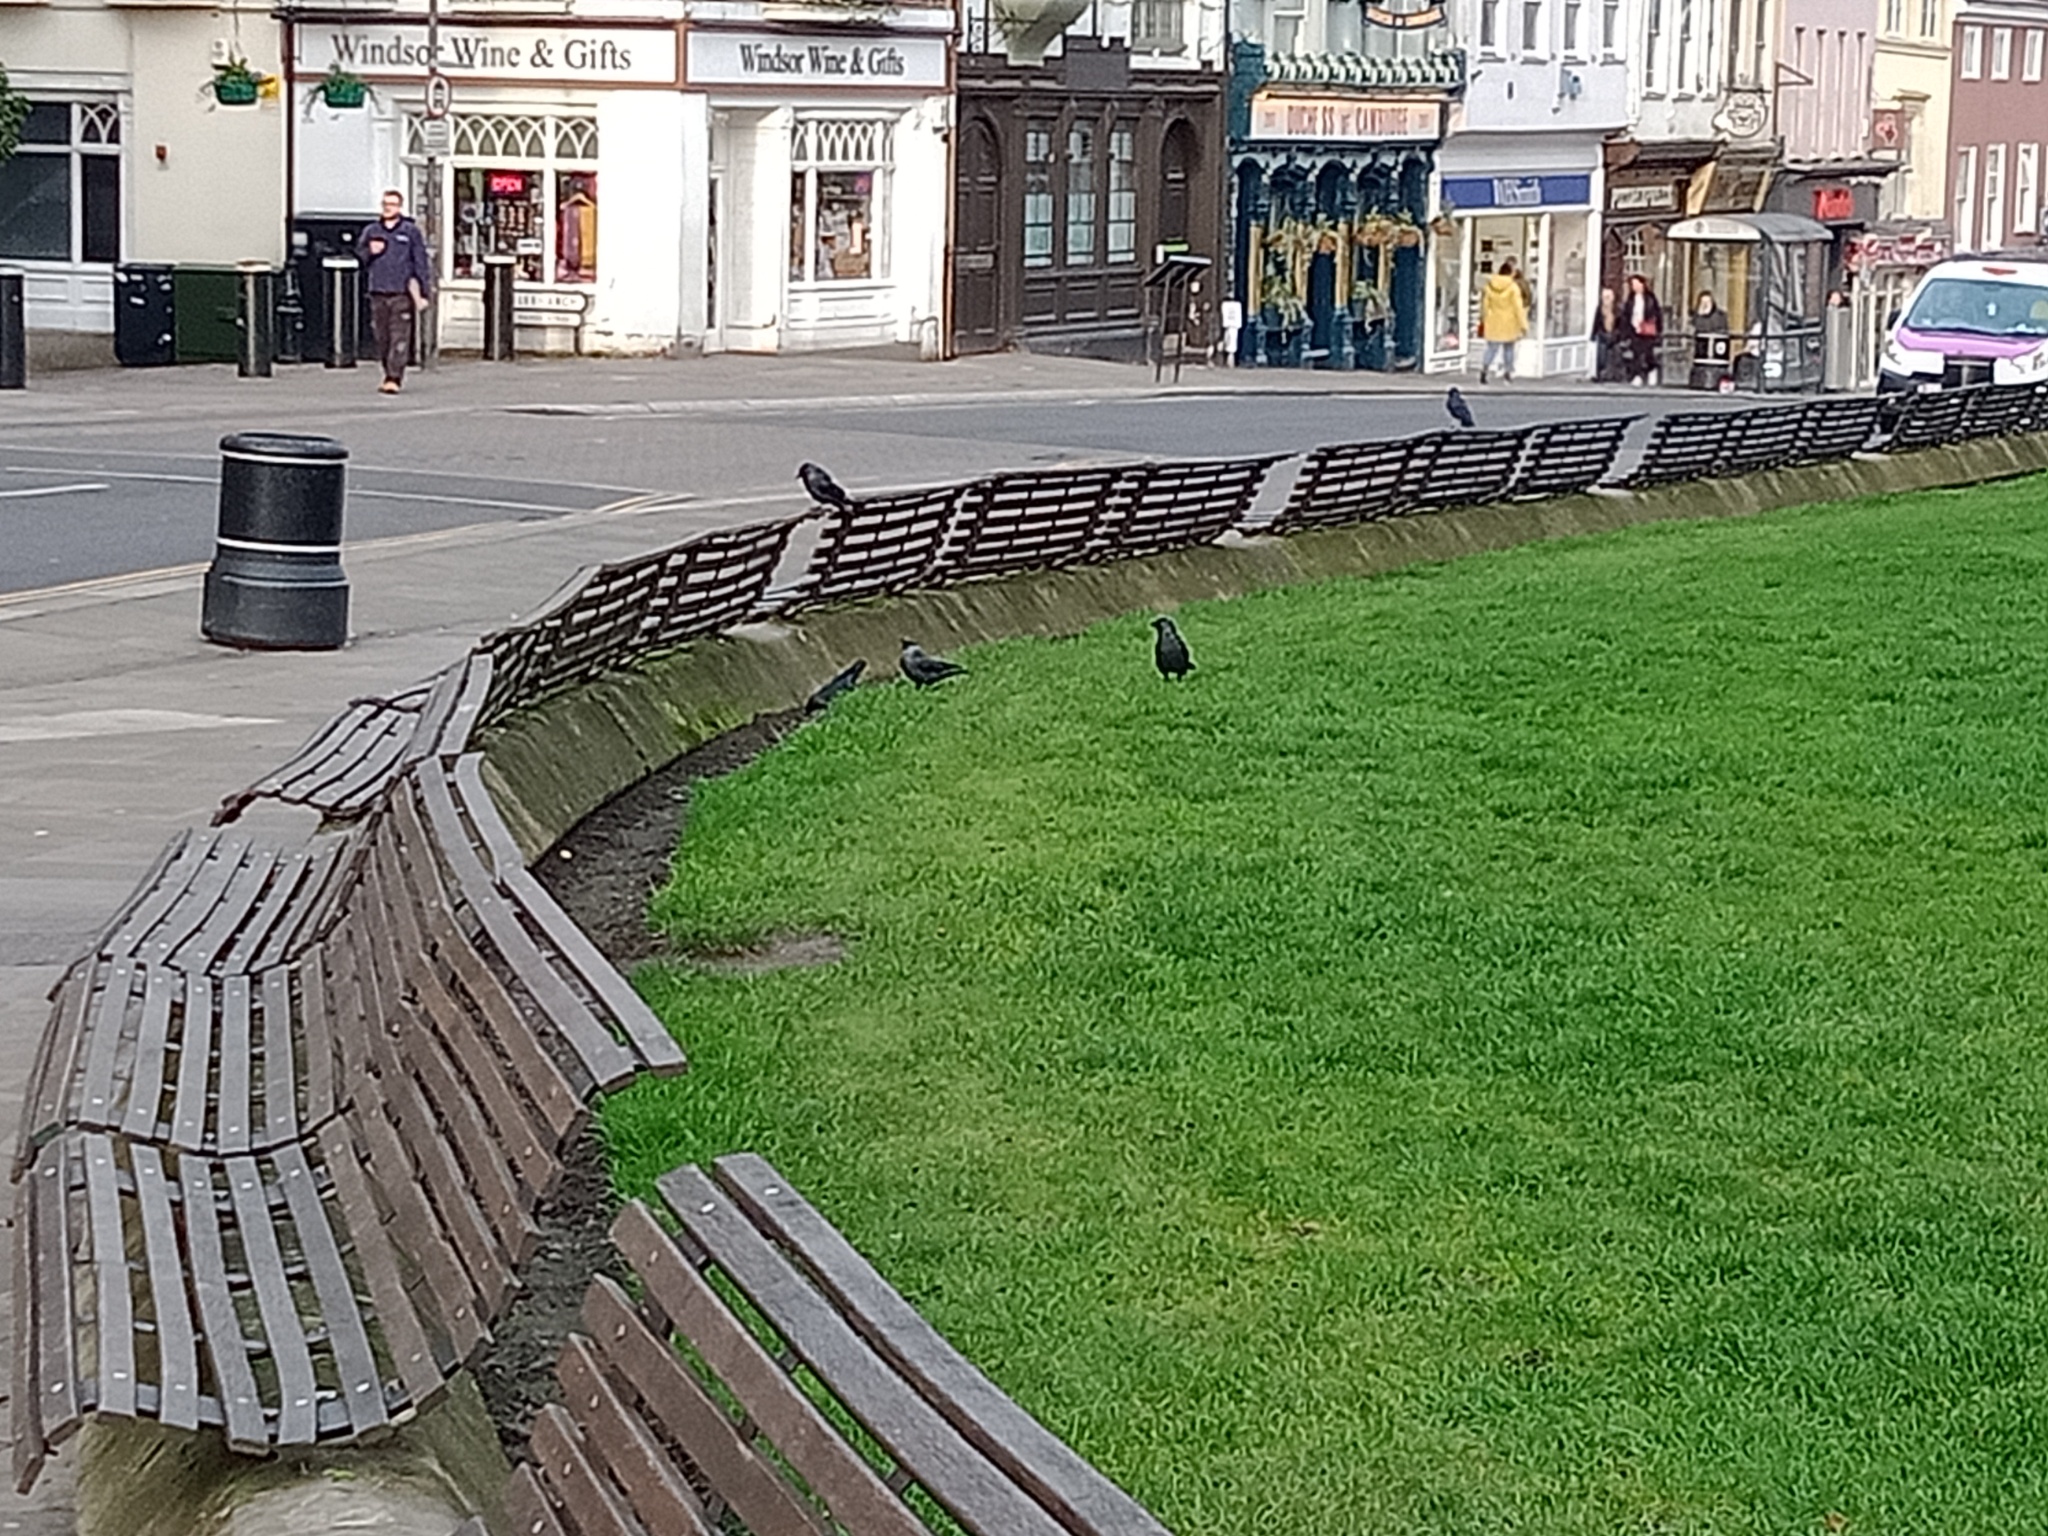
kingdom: Animalia
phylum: Chordata
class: Aves
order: Passeriformes
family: Corvidae
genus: Coloeus
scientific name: Coloeus monedula
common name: Western jackdaw
